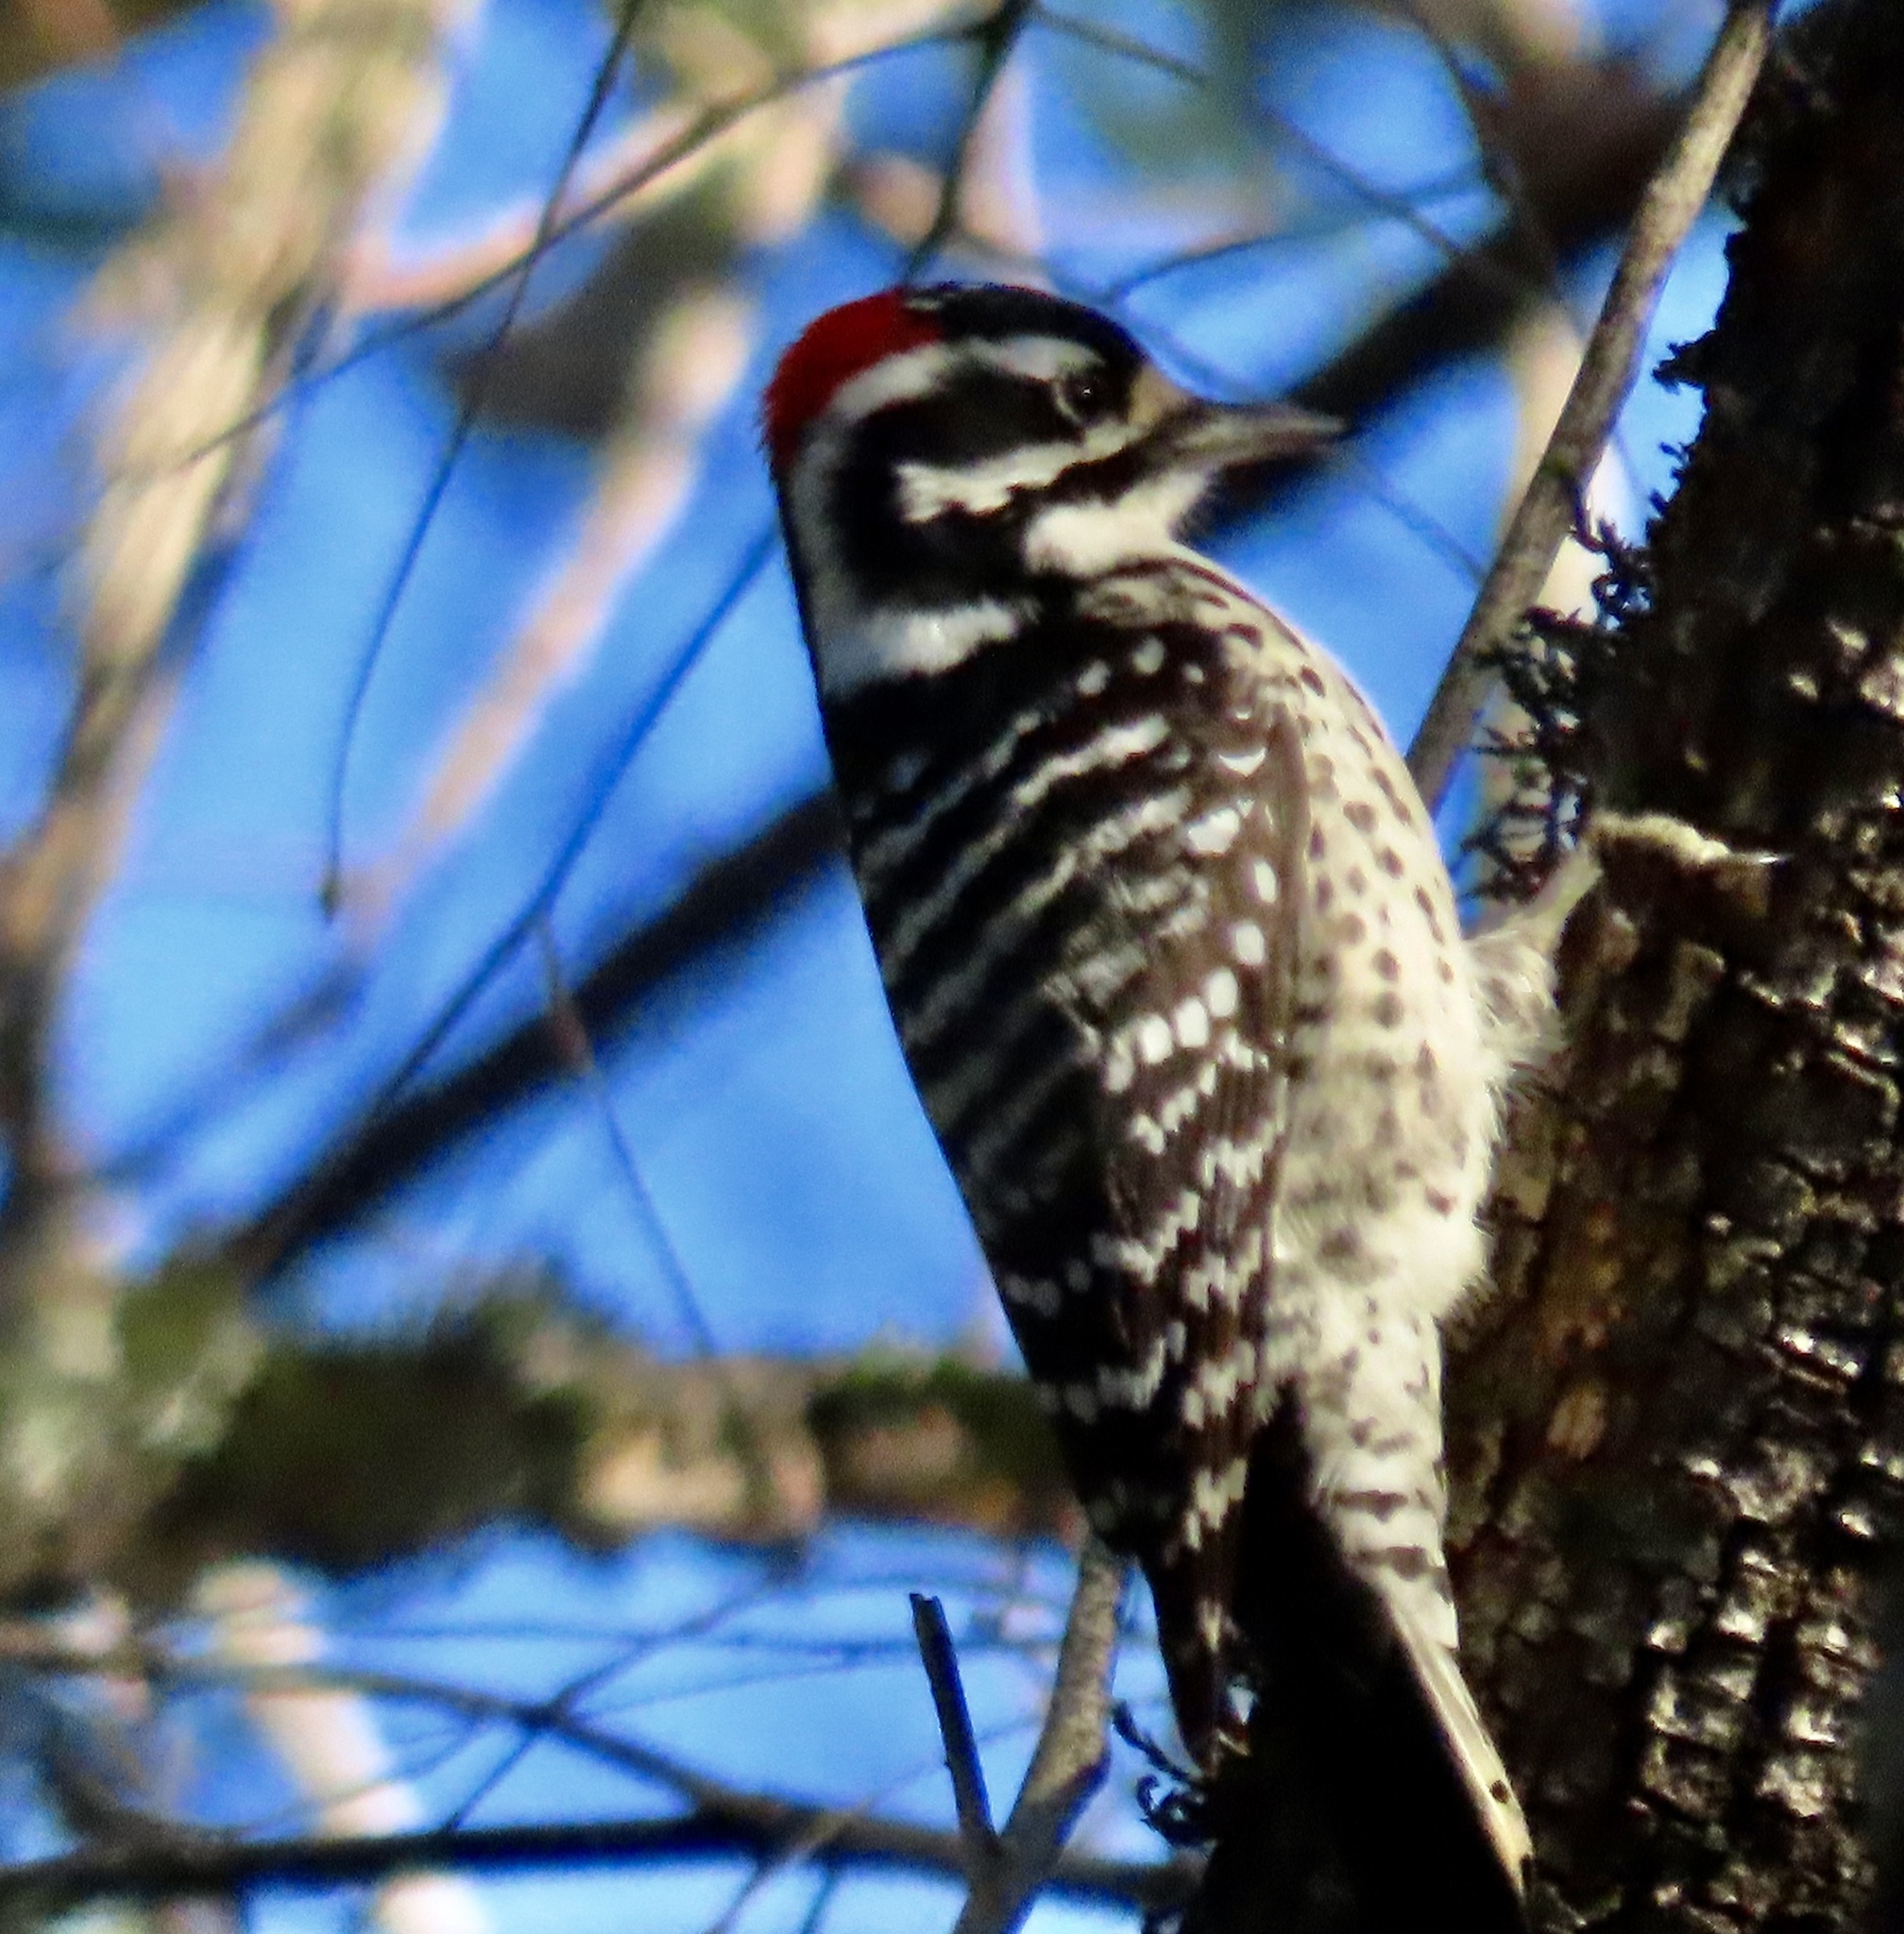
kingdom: Animalia
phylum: Chordata
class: Aves
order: Piciformes
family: Picidae
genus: Dryobates
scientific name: Dryobates nuttallii
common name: Nuttall's woodpecker
